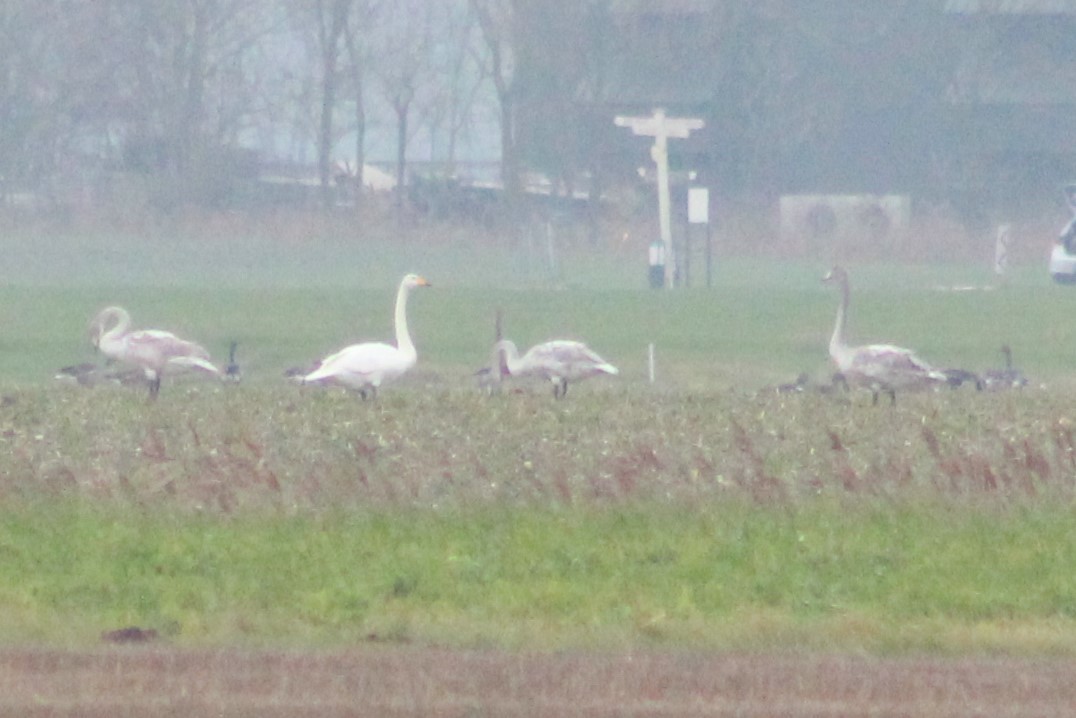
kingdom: Animalia
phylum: Chordata
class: Aves
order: Anseriformes
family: Anatidae
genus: Cygnus
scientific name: Cygnus cygnus
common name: Whooper swan
